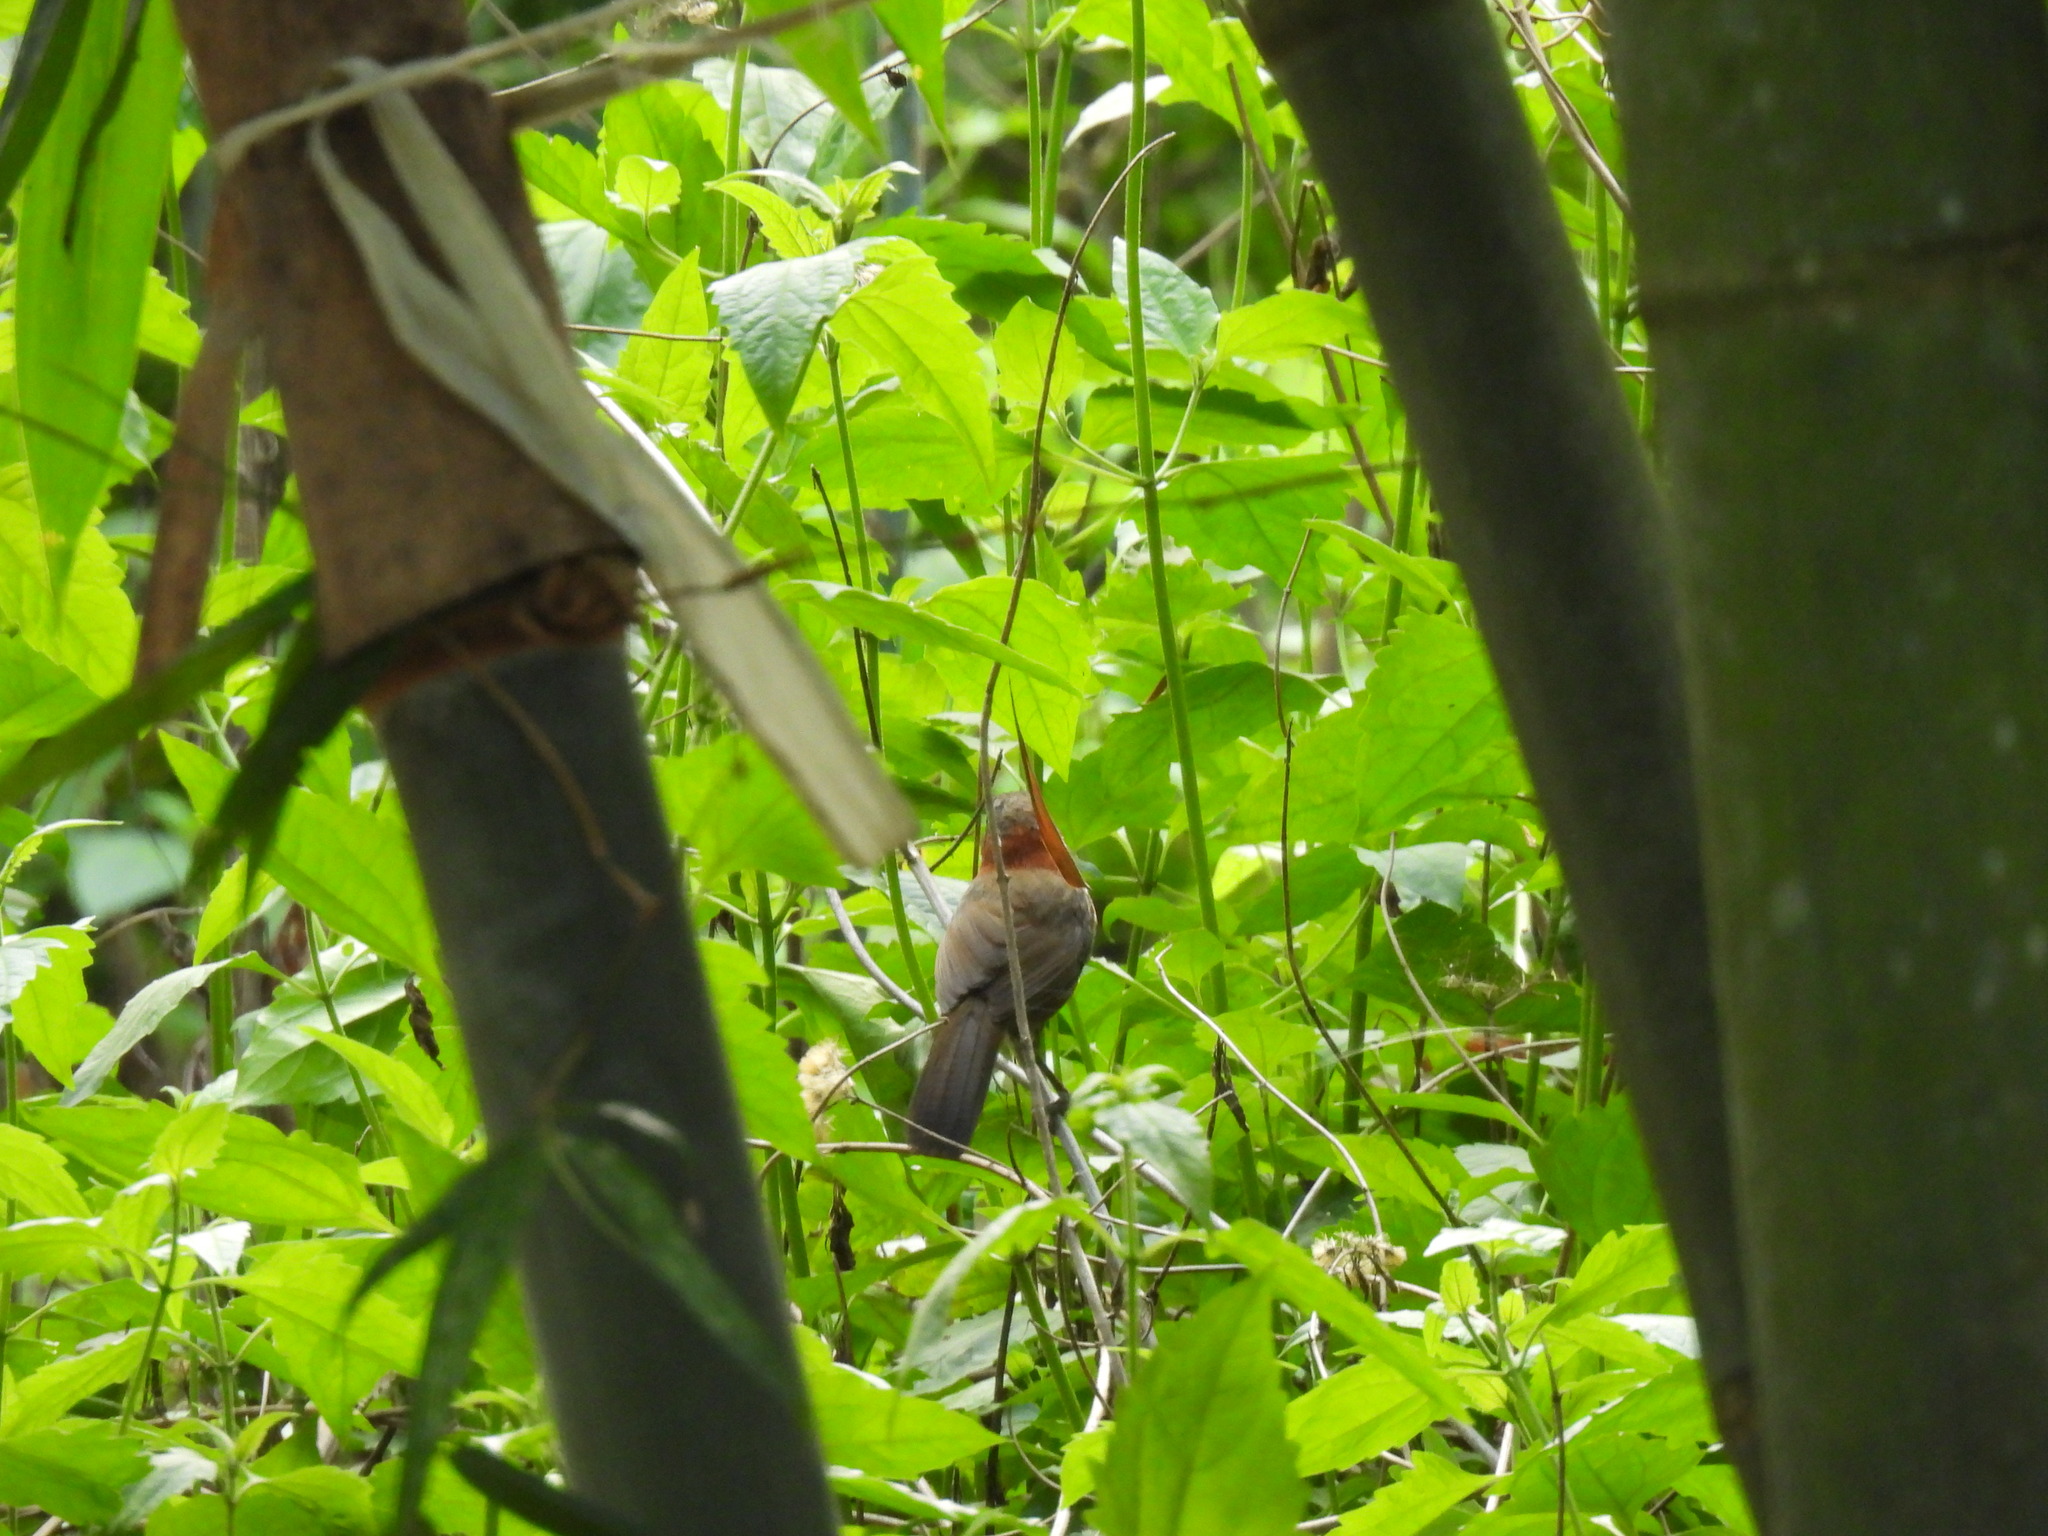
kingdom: Animalia
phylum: Chordata
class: Aves
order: Passeriformes
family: Timaliidae
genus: Pomatorhinus
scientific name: Pomatorhinus musicus
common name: Taiwan scimitar-babbler
